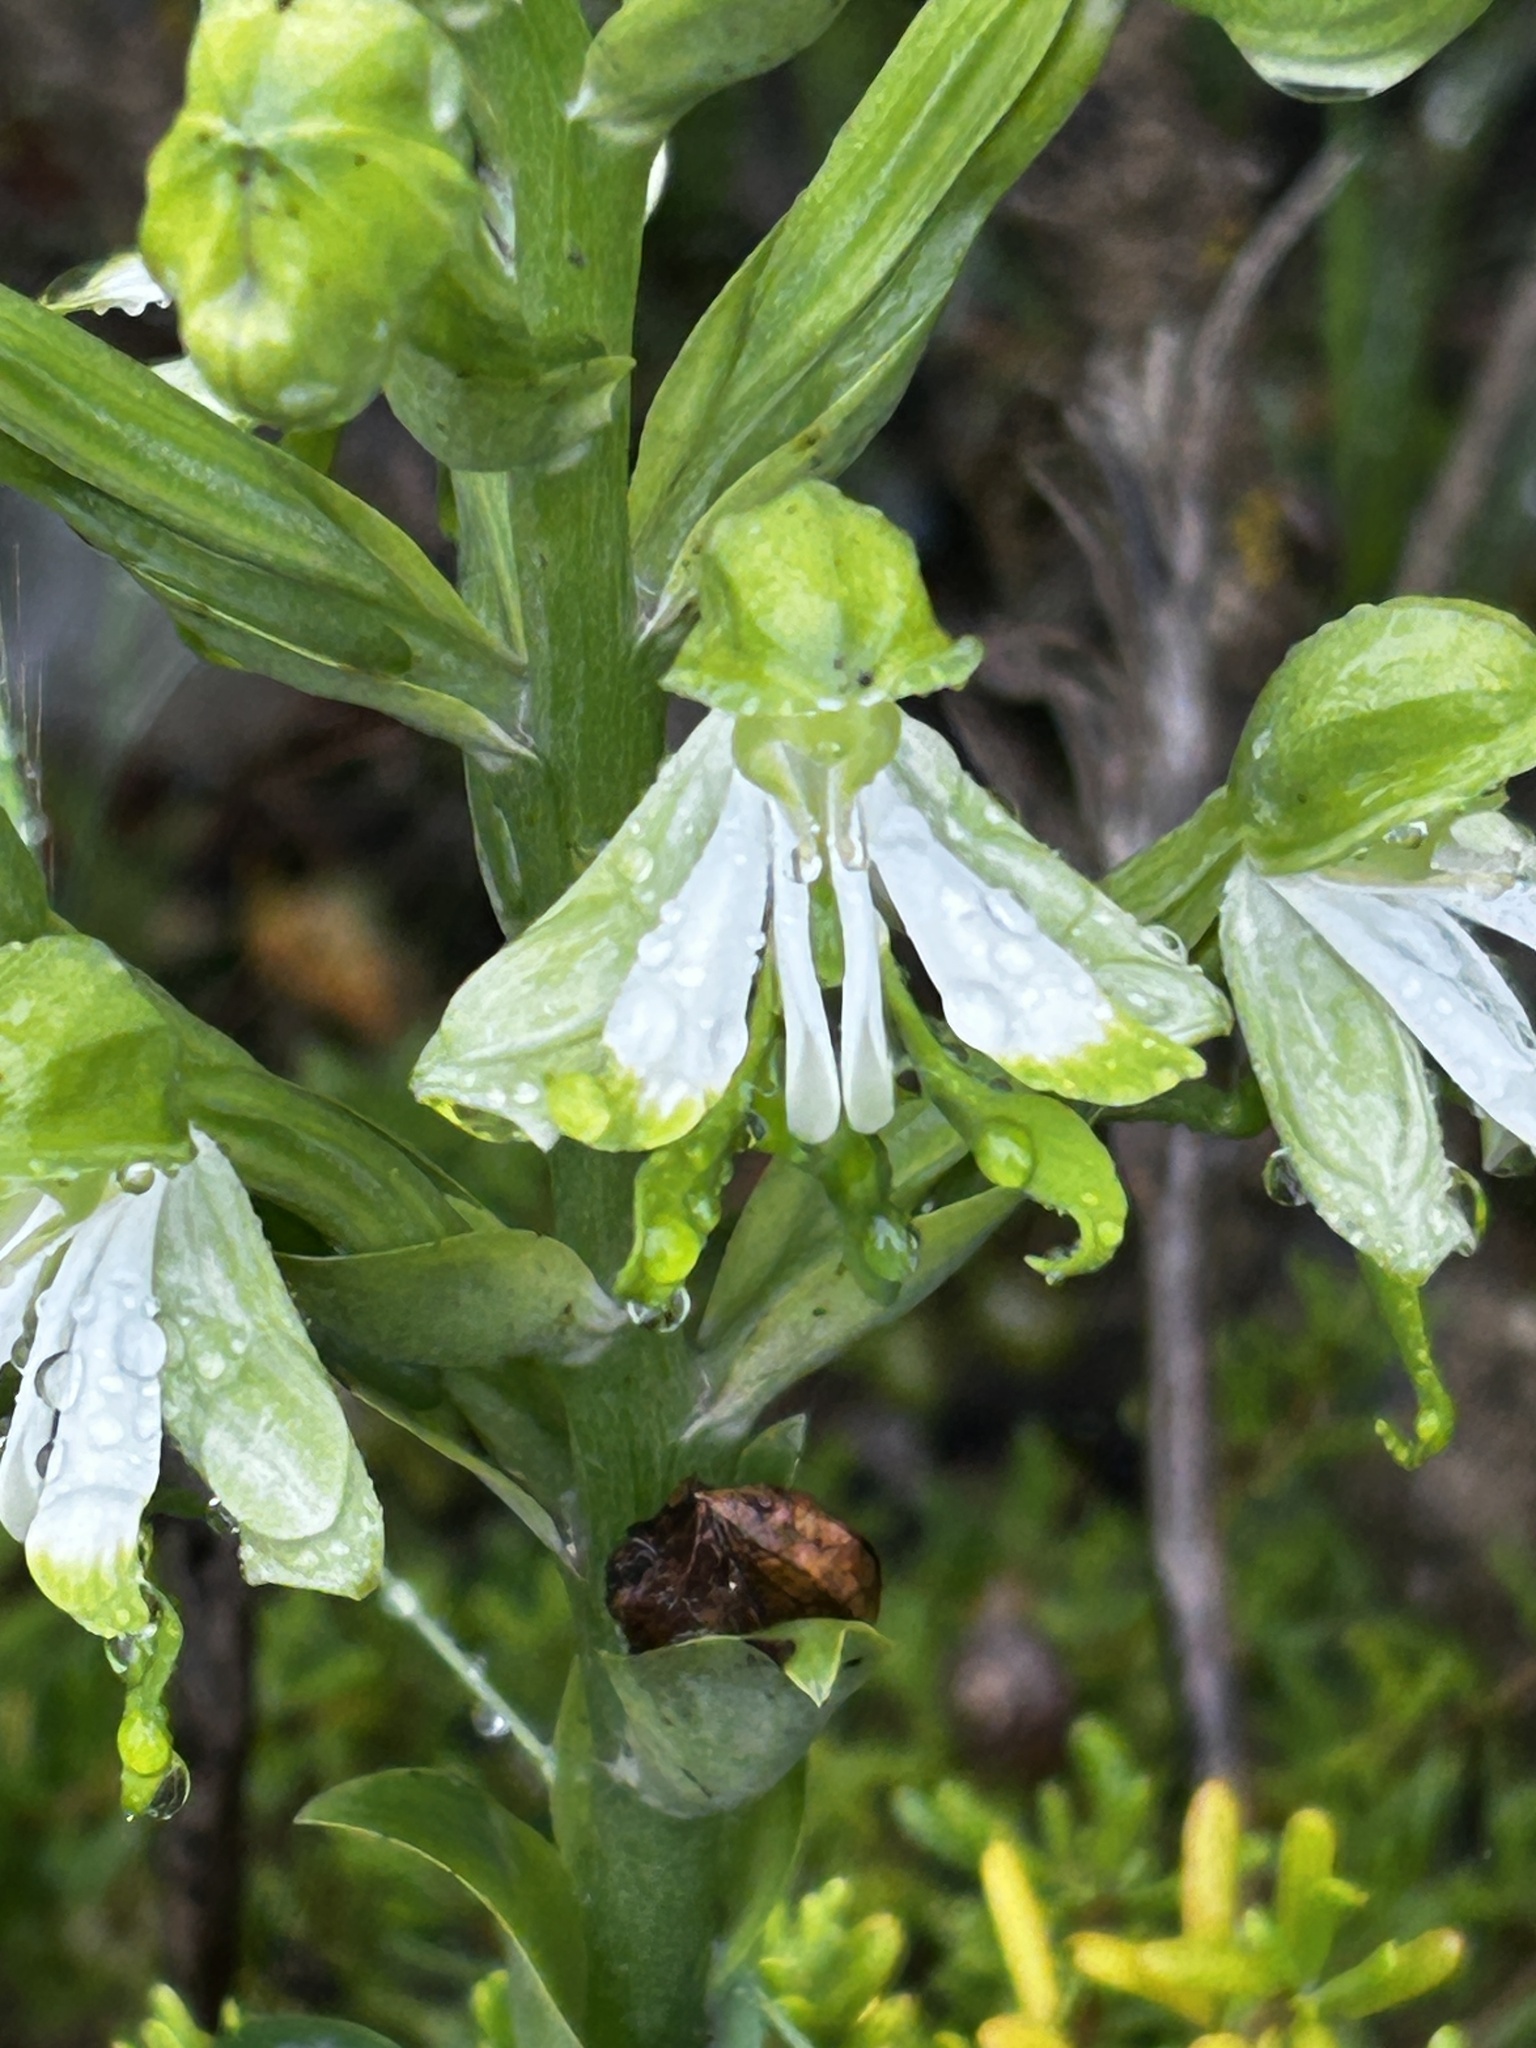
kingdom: Plantae
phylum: Tracheophyta
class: Liliopsida
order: Asparagales
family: Orchidaceae
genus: Bonatea
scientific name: Bonatea speciosa
